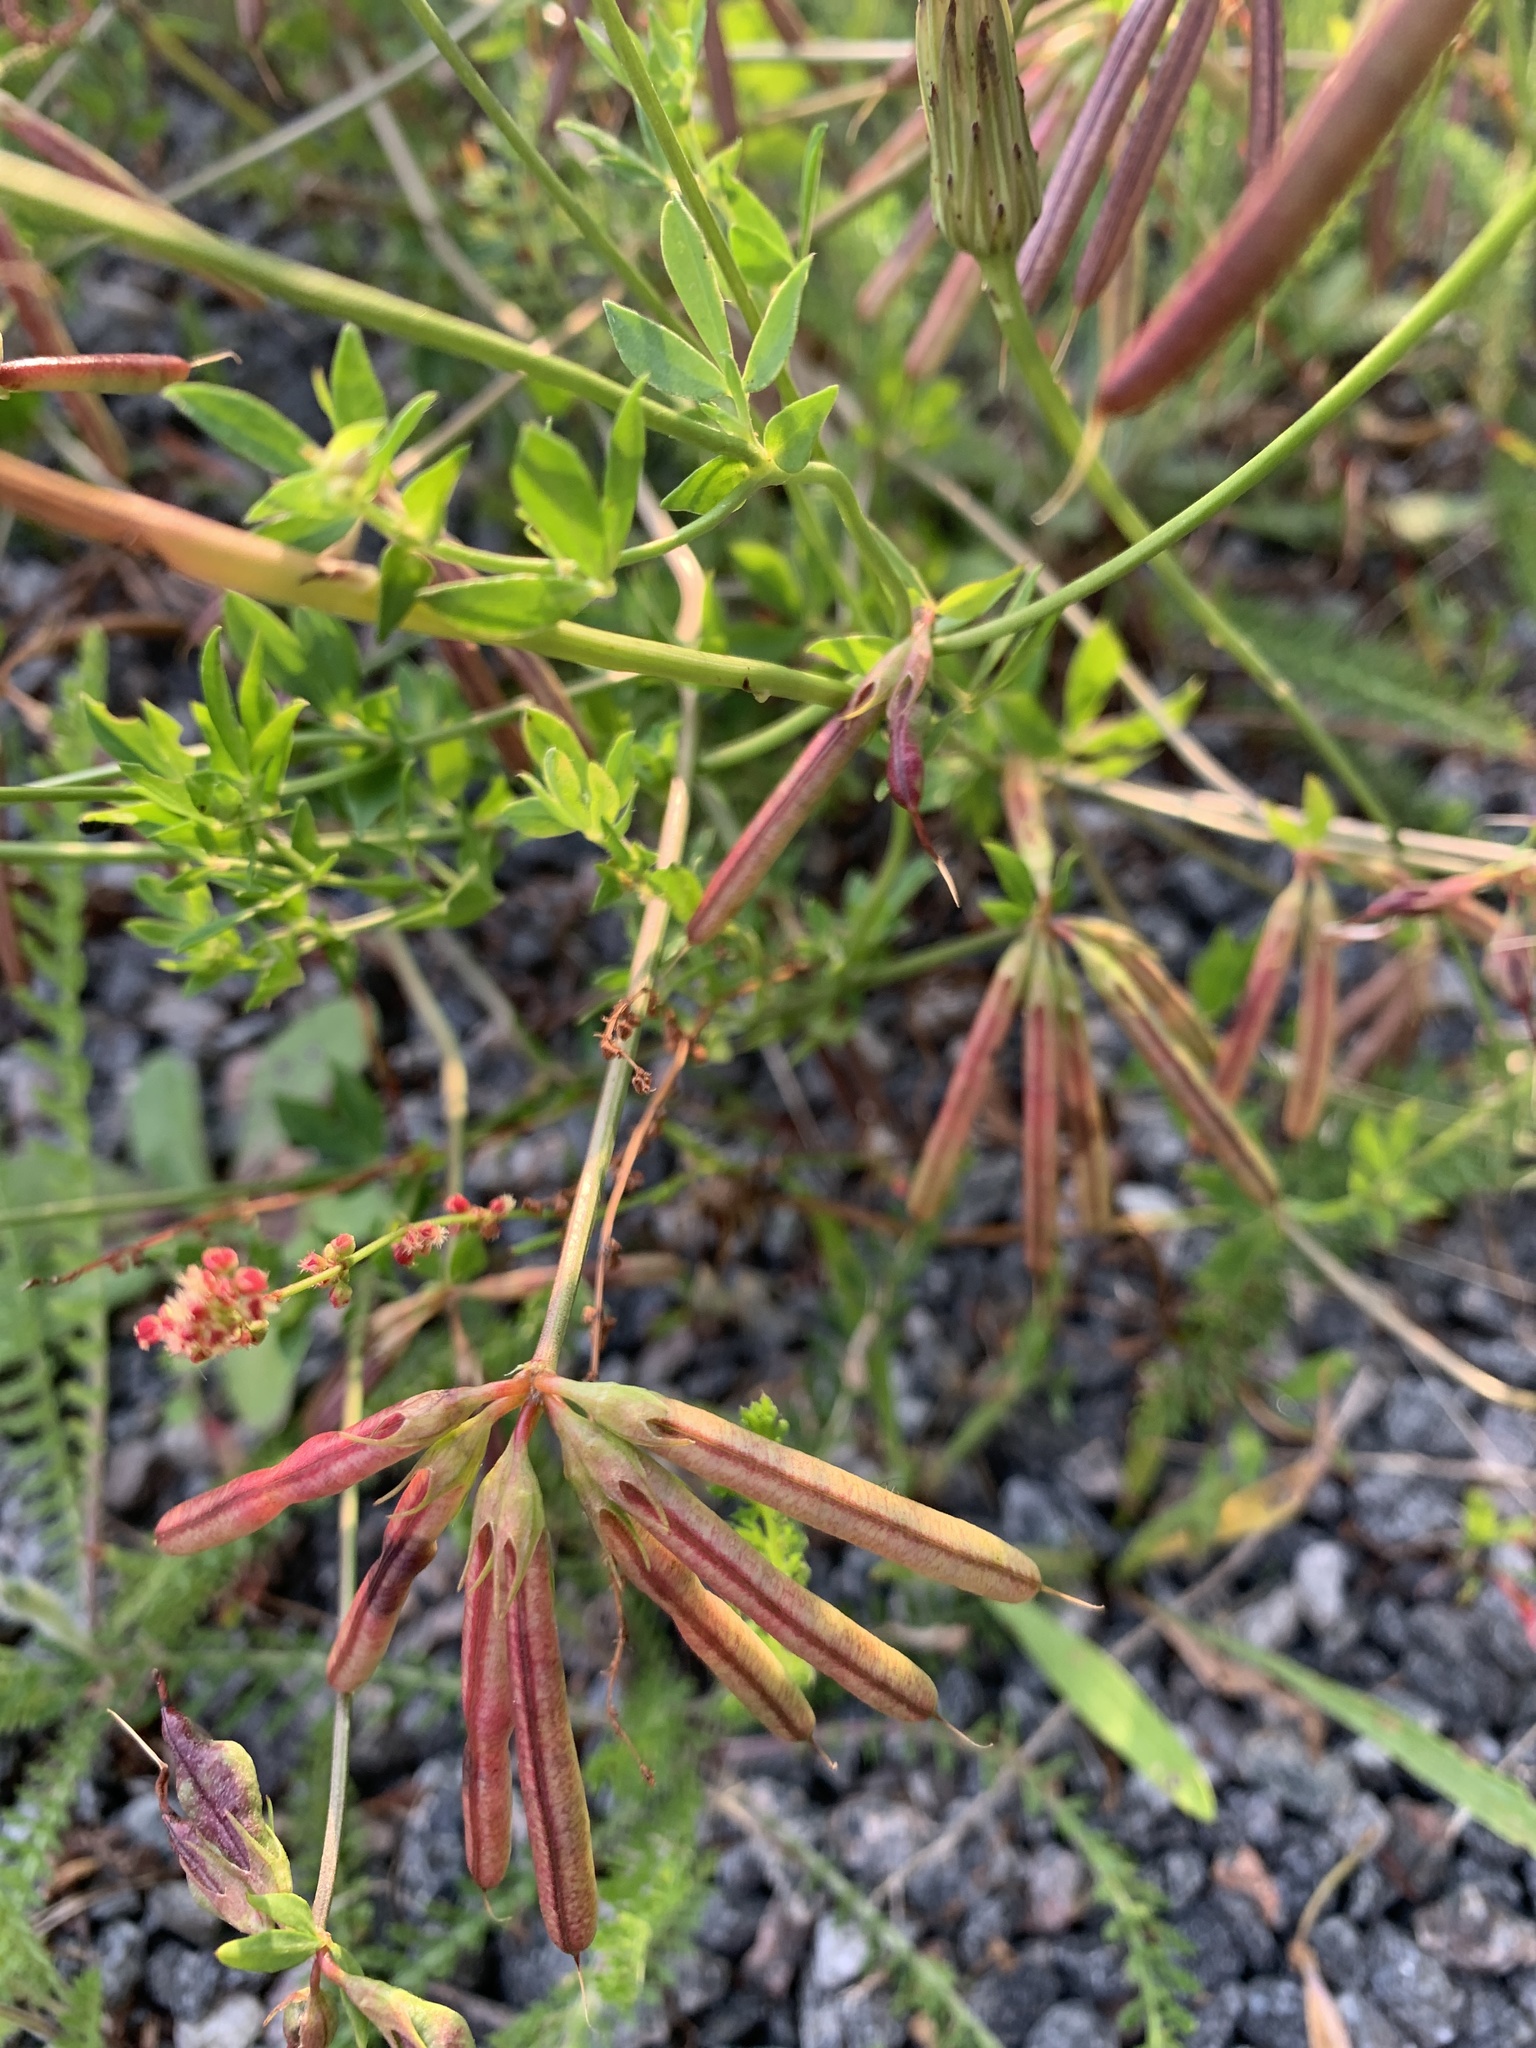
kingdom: Plantae
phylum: Tracheophyta
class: Magnoliopsida
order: Fabales
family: Fabaceae
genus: Lotus
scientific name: Lotus corniculatus
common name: Common bird's-foot-trefoil
